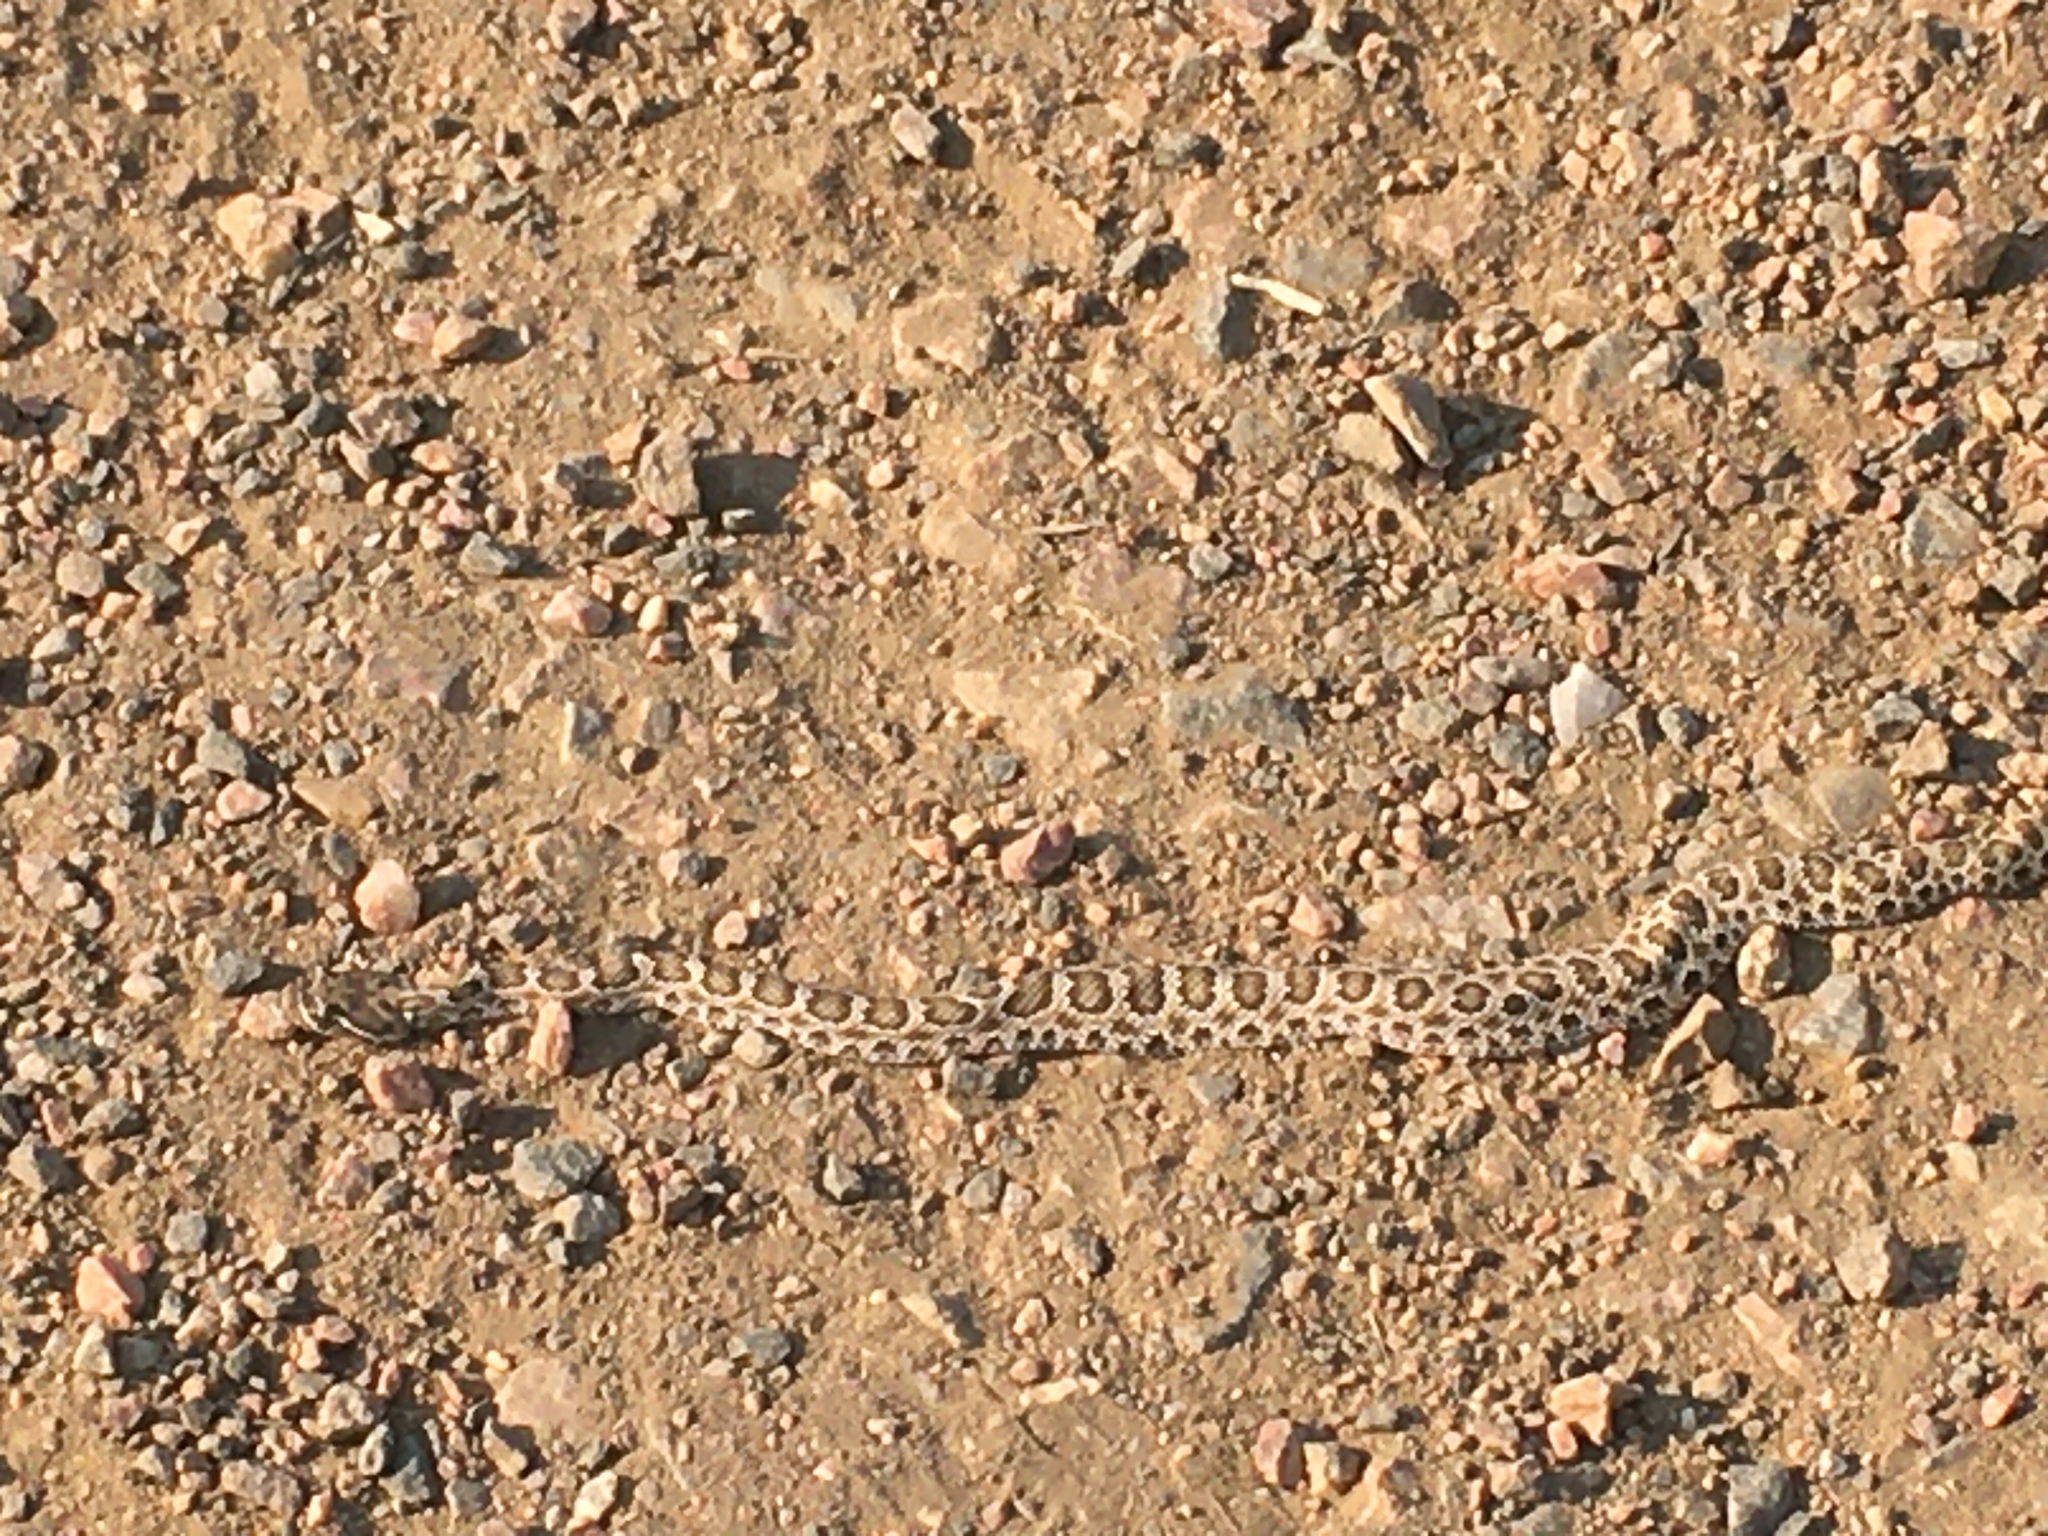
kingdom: Animalia
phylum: Chordata
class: Squamata
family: Viperidae
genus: Crotalus
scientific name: Crotalus viridis
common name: Prairie rattlesnake
